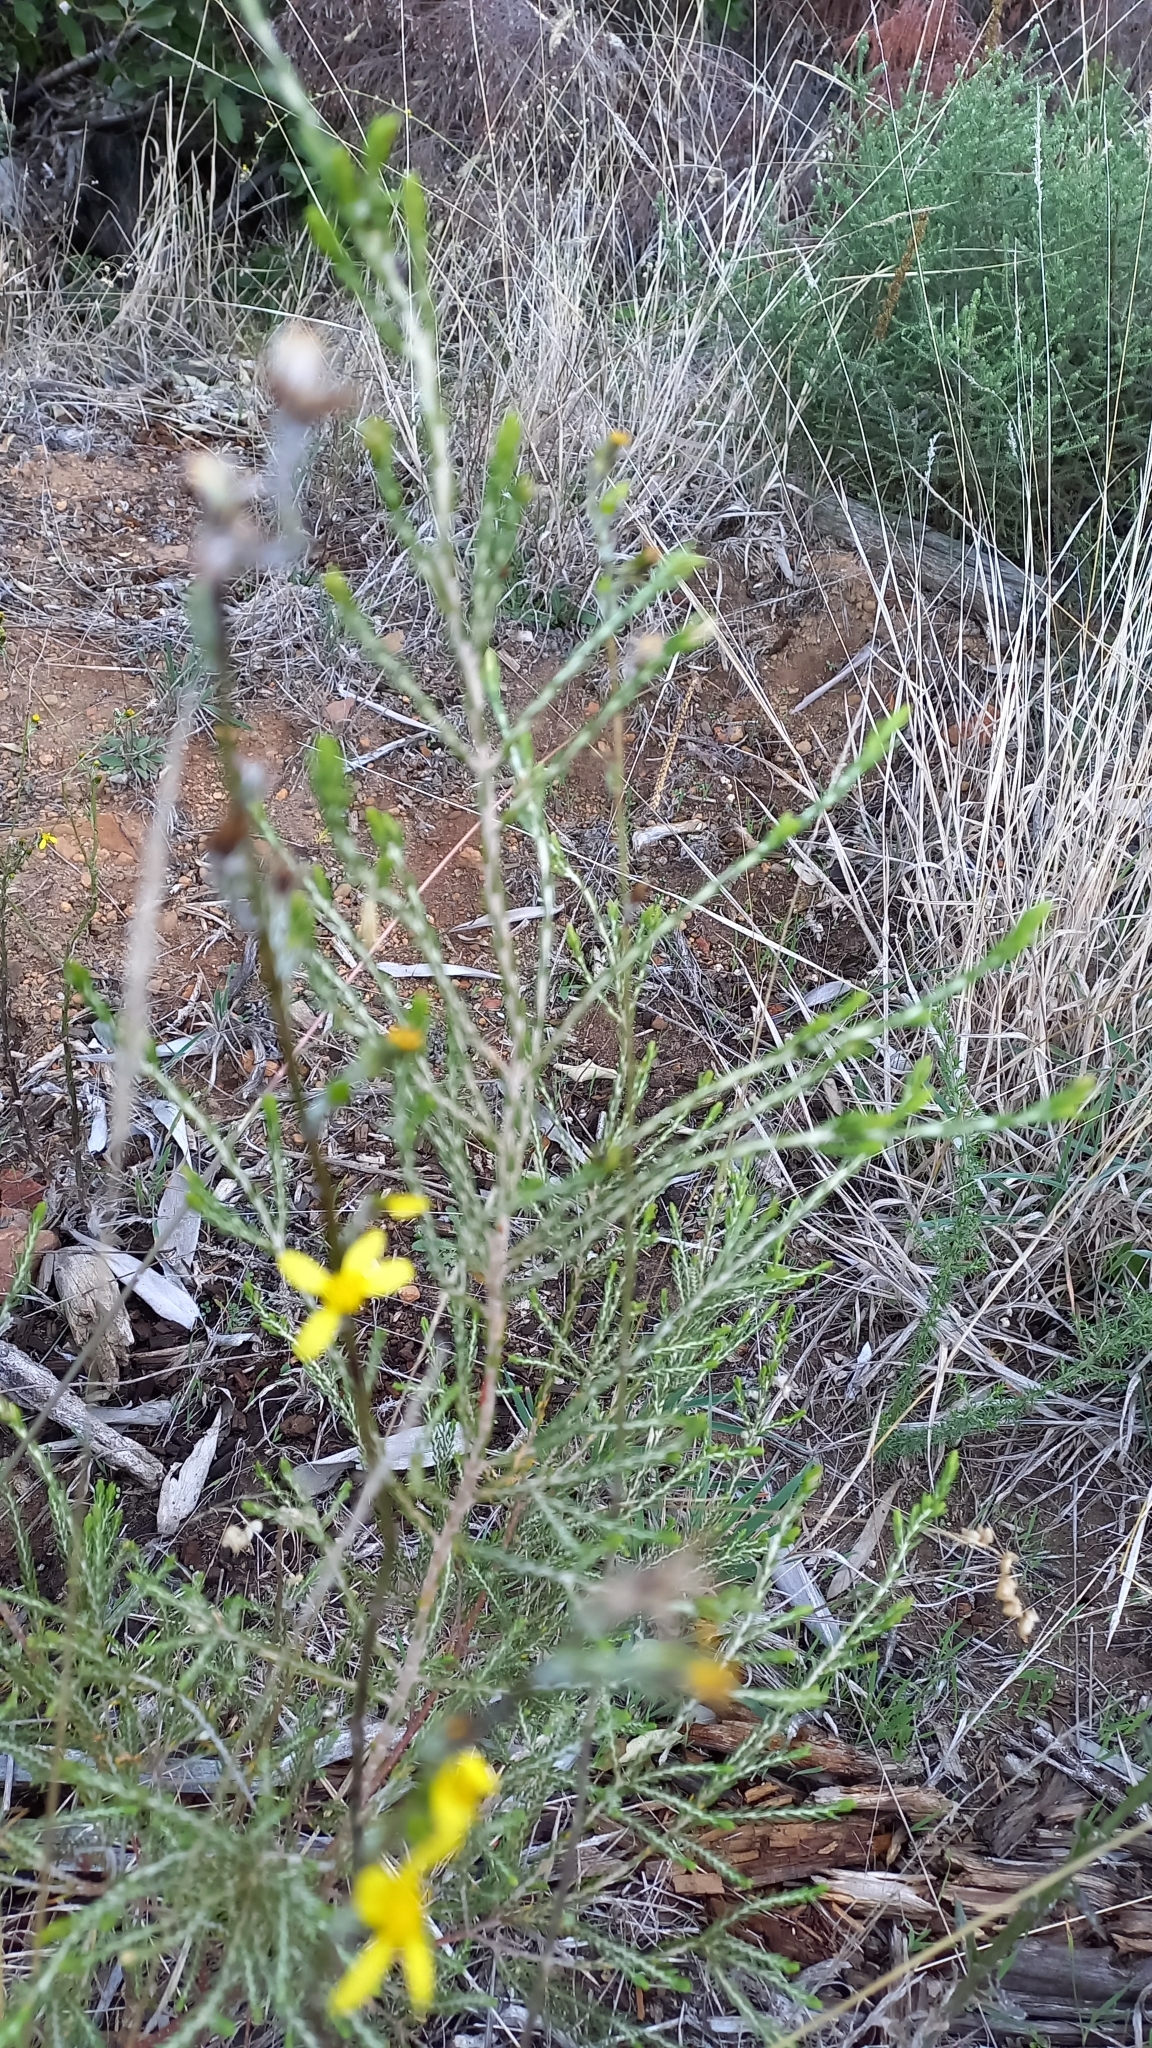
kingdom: Plantae
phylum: Tracheophyta
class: Magnoliopsida
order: Asterales
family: Asteraceae
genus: Senecio
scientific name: Senecio pubigerus
